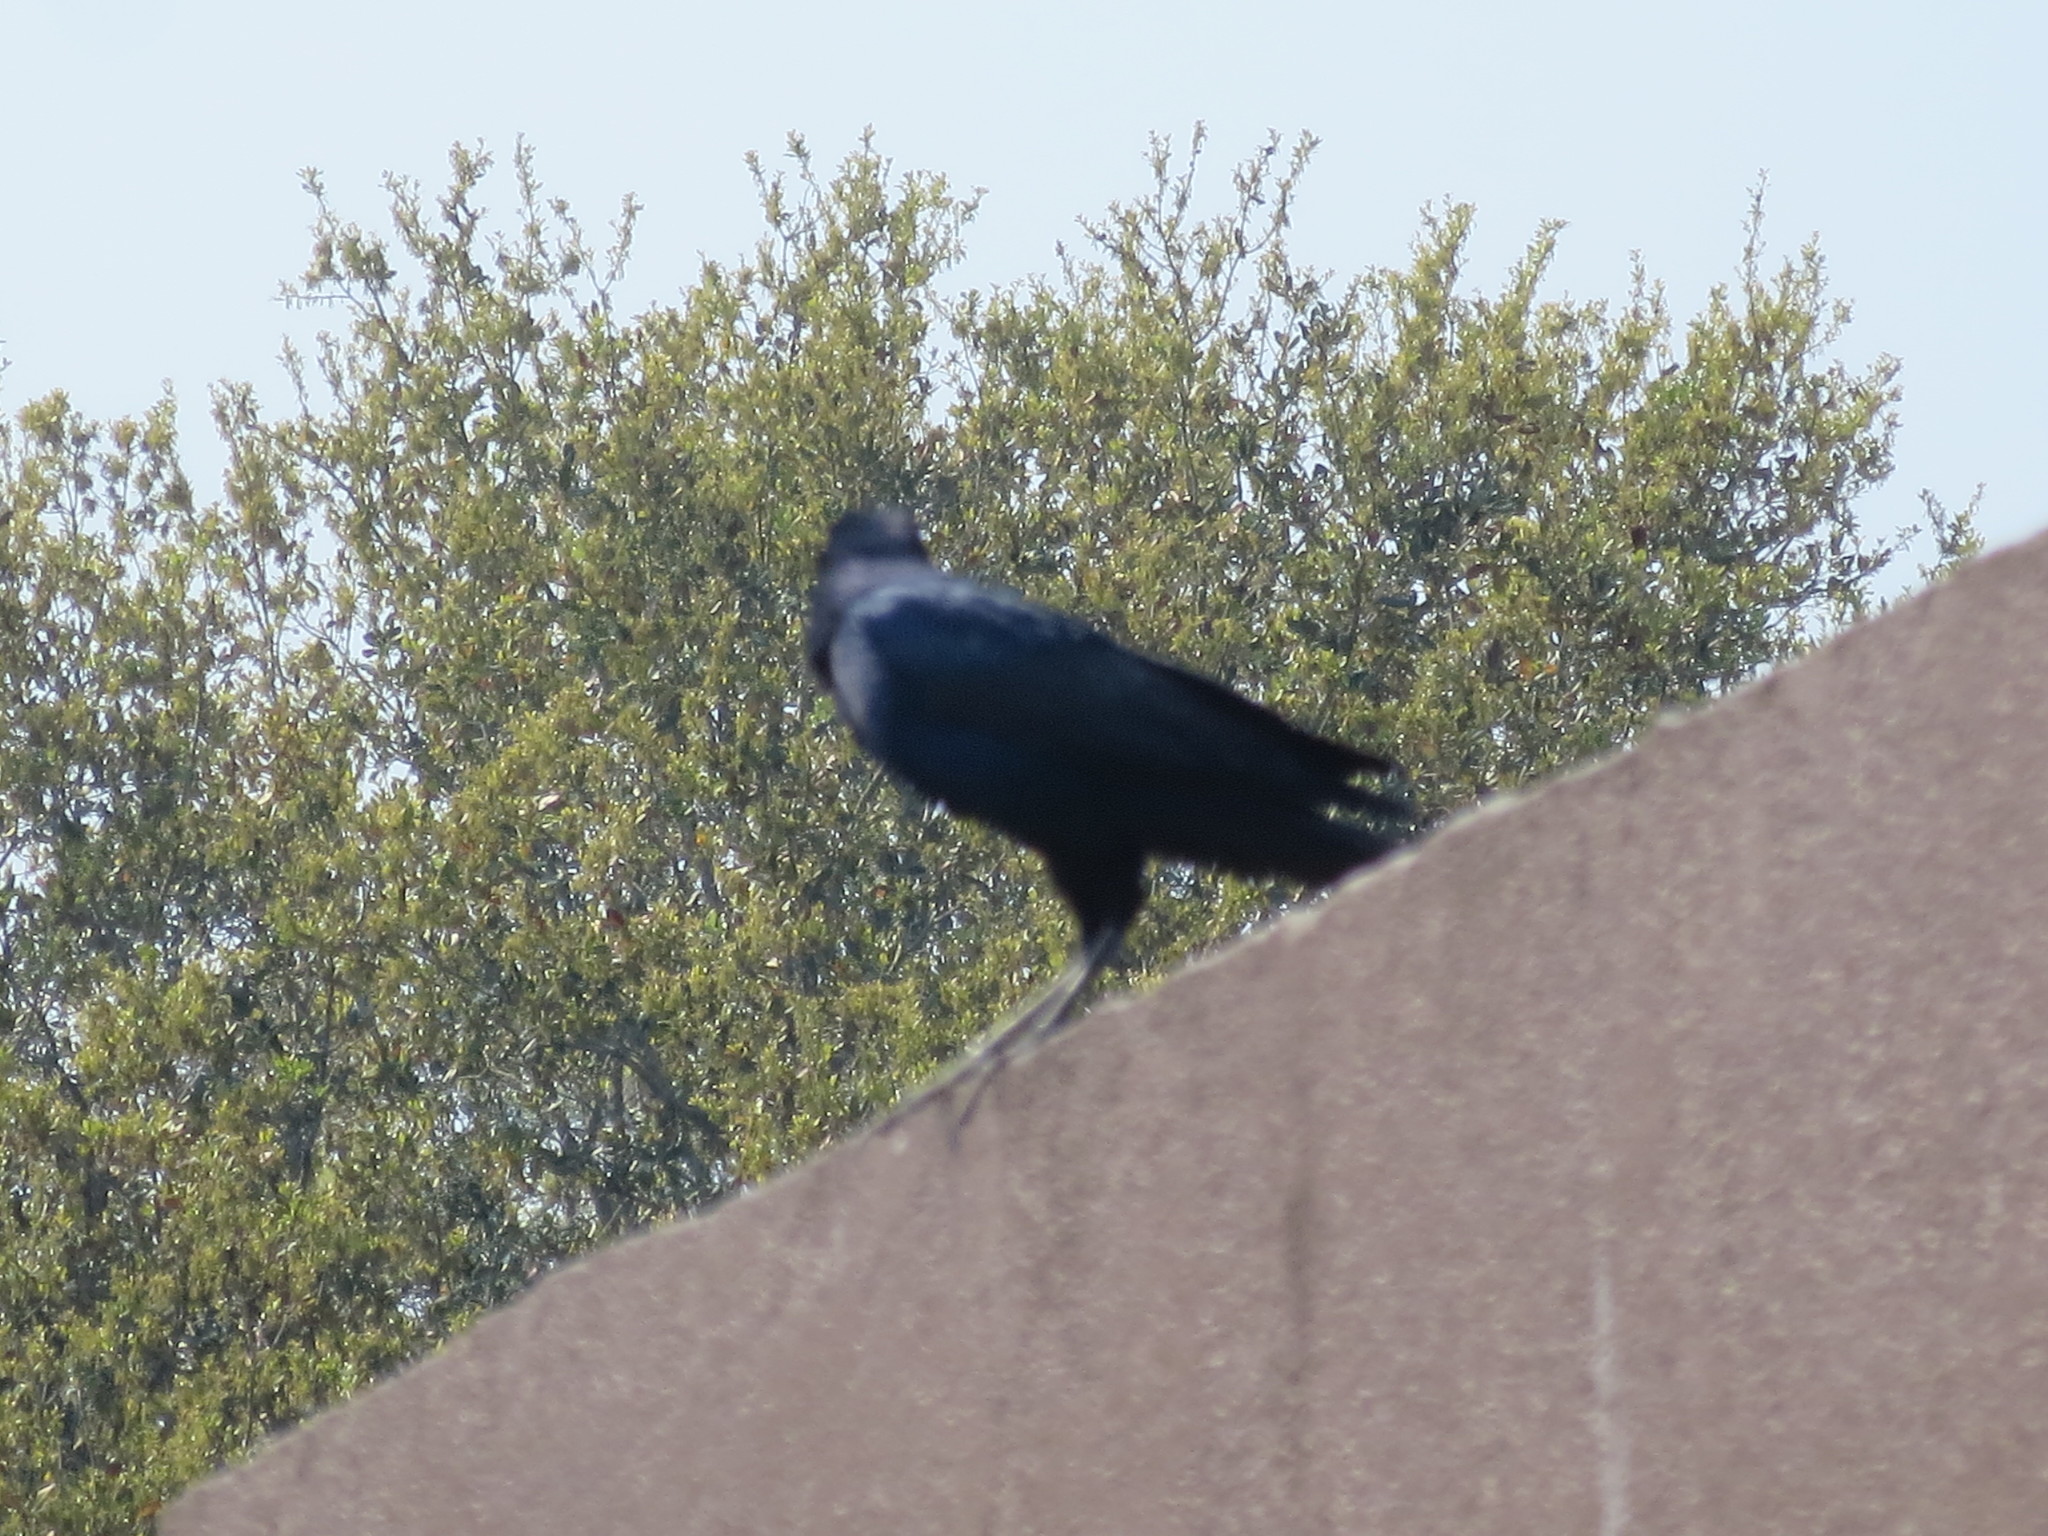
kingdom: Animalia
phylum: Chordata
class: Aves
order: Passeriformes
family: Icteridae
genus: Quiscalus
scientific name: Quiscalus major
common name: Boat-tailed grackle
